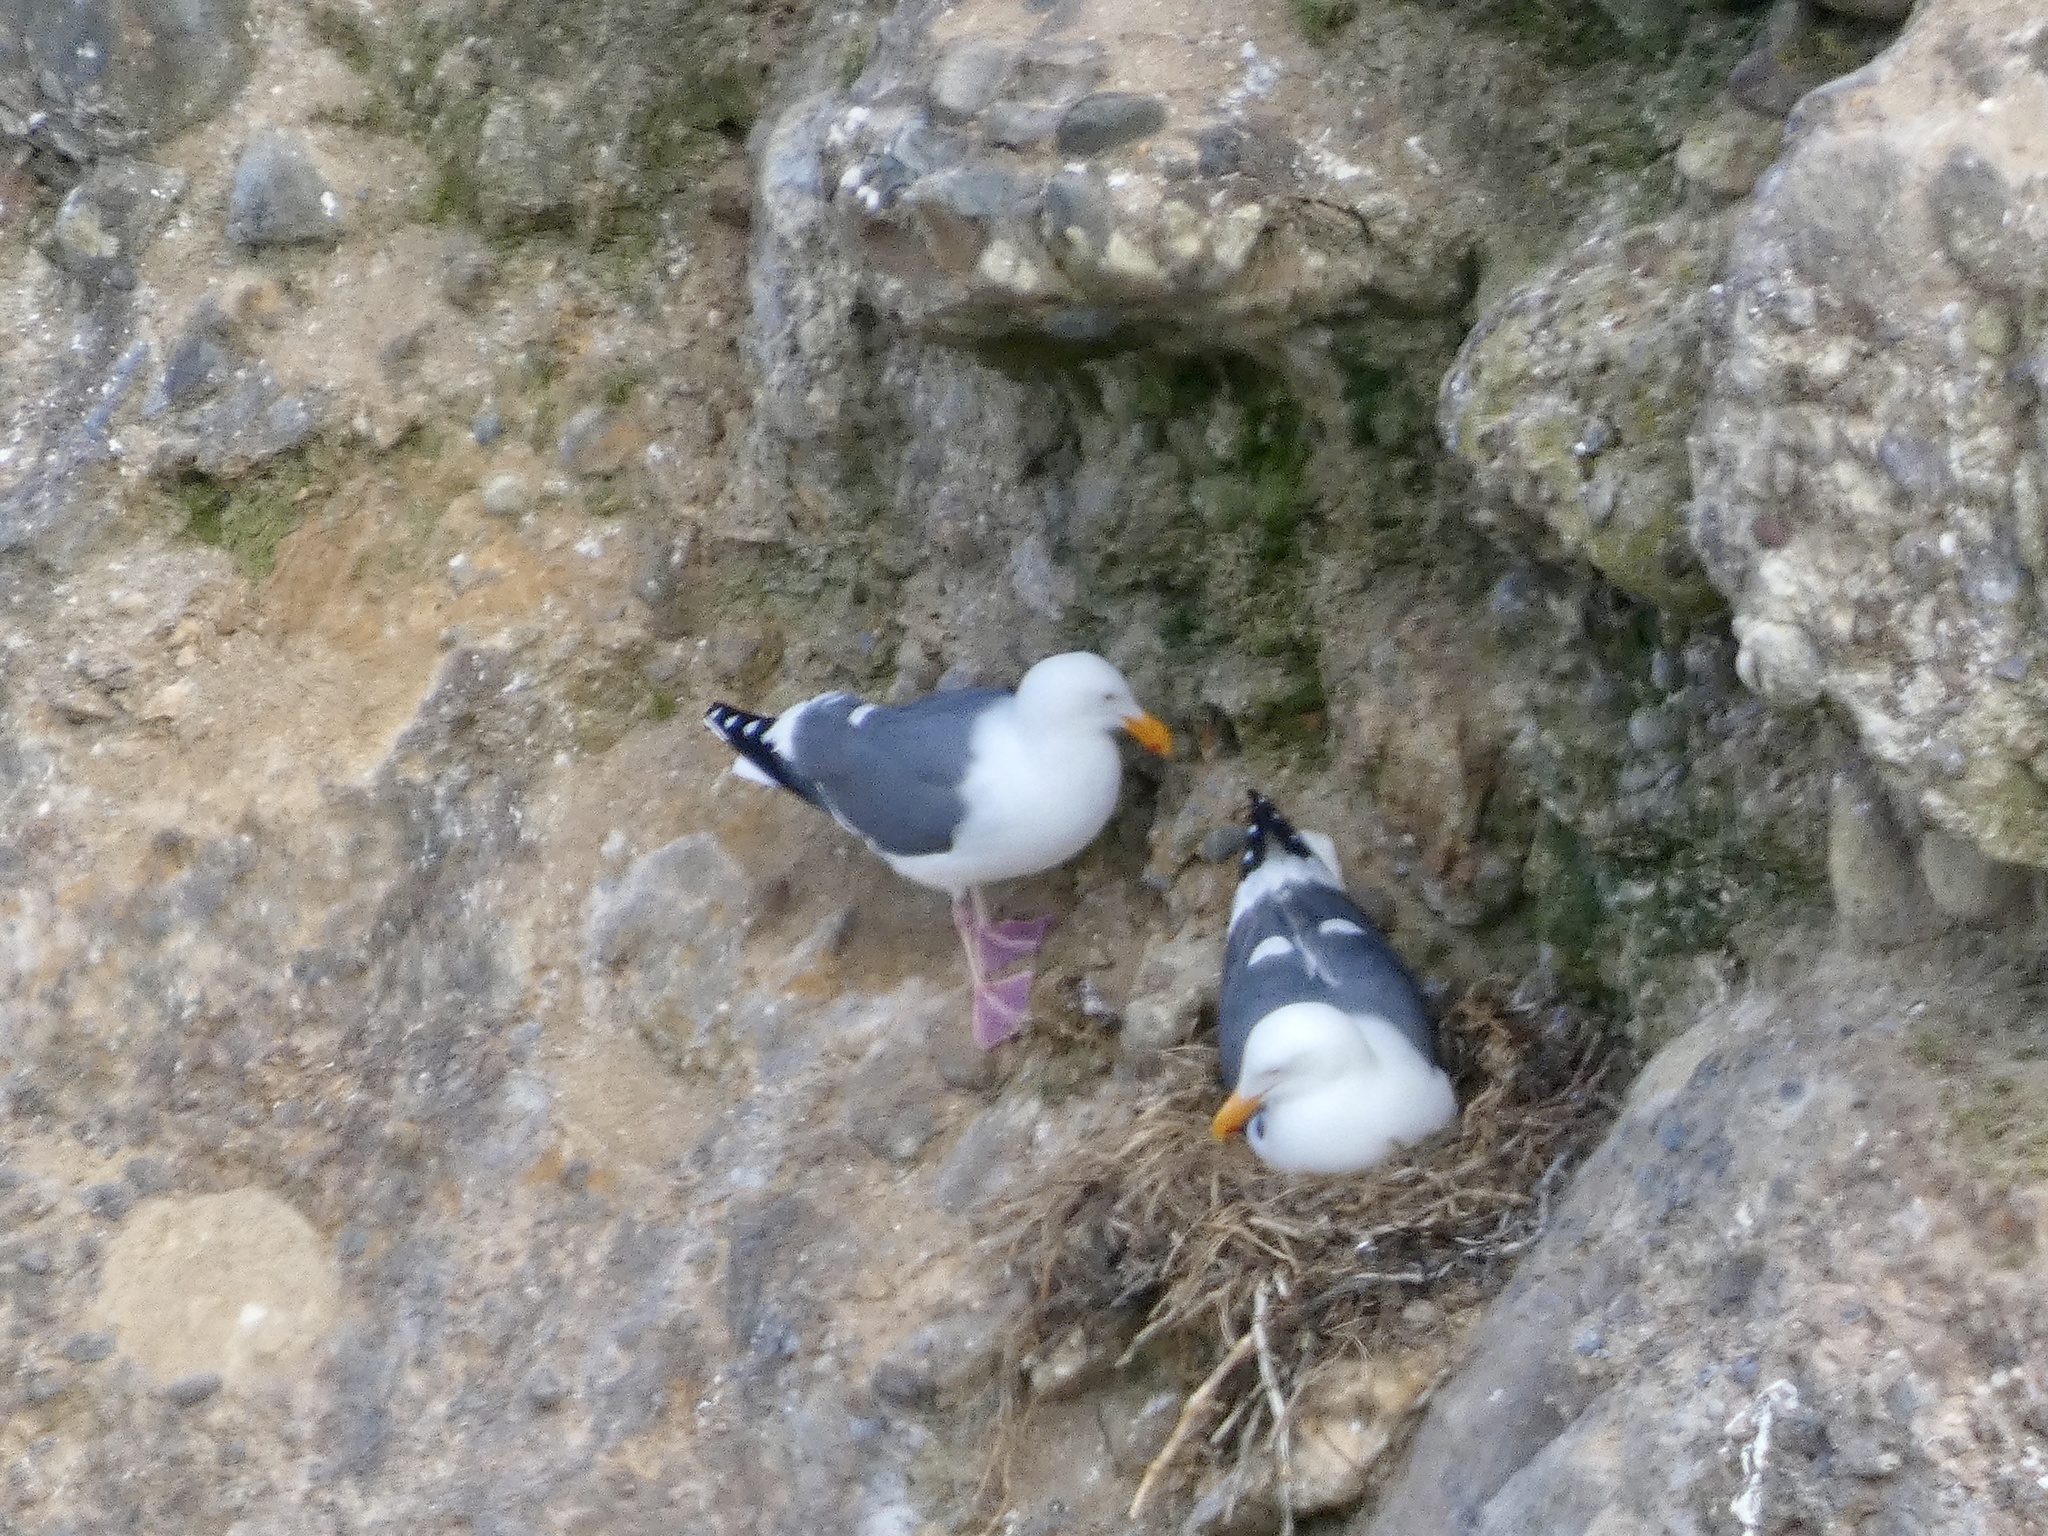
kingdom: Animalia
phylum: Chordata
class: Aves
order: Charadriiformes
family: Laridae
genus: Larus
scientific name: Larus occidentalis
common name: Western gull
